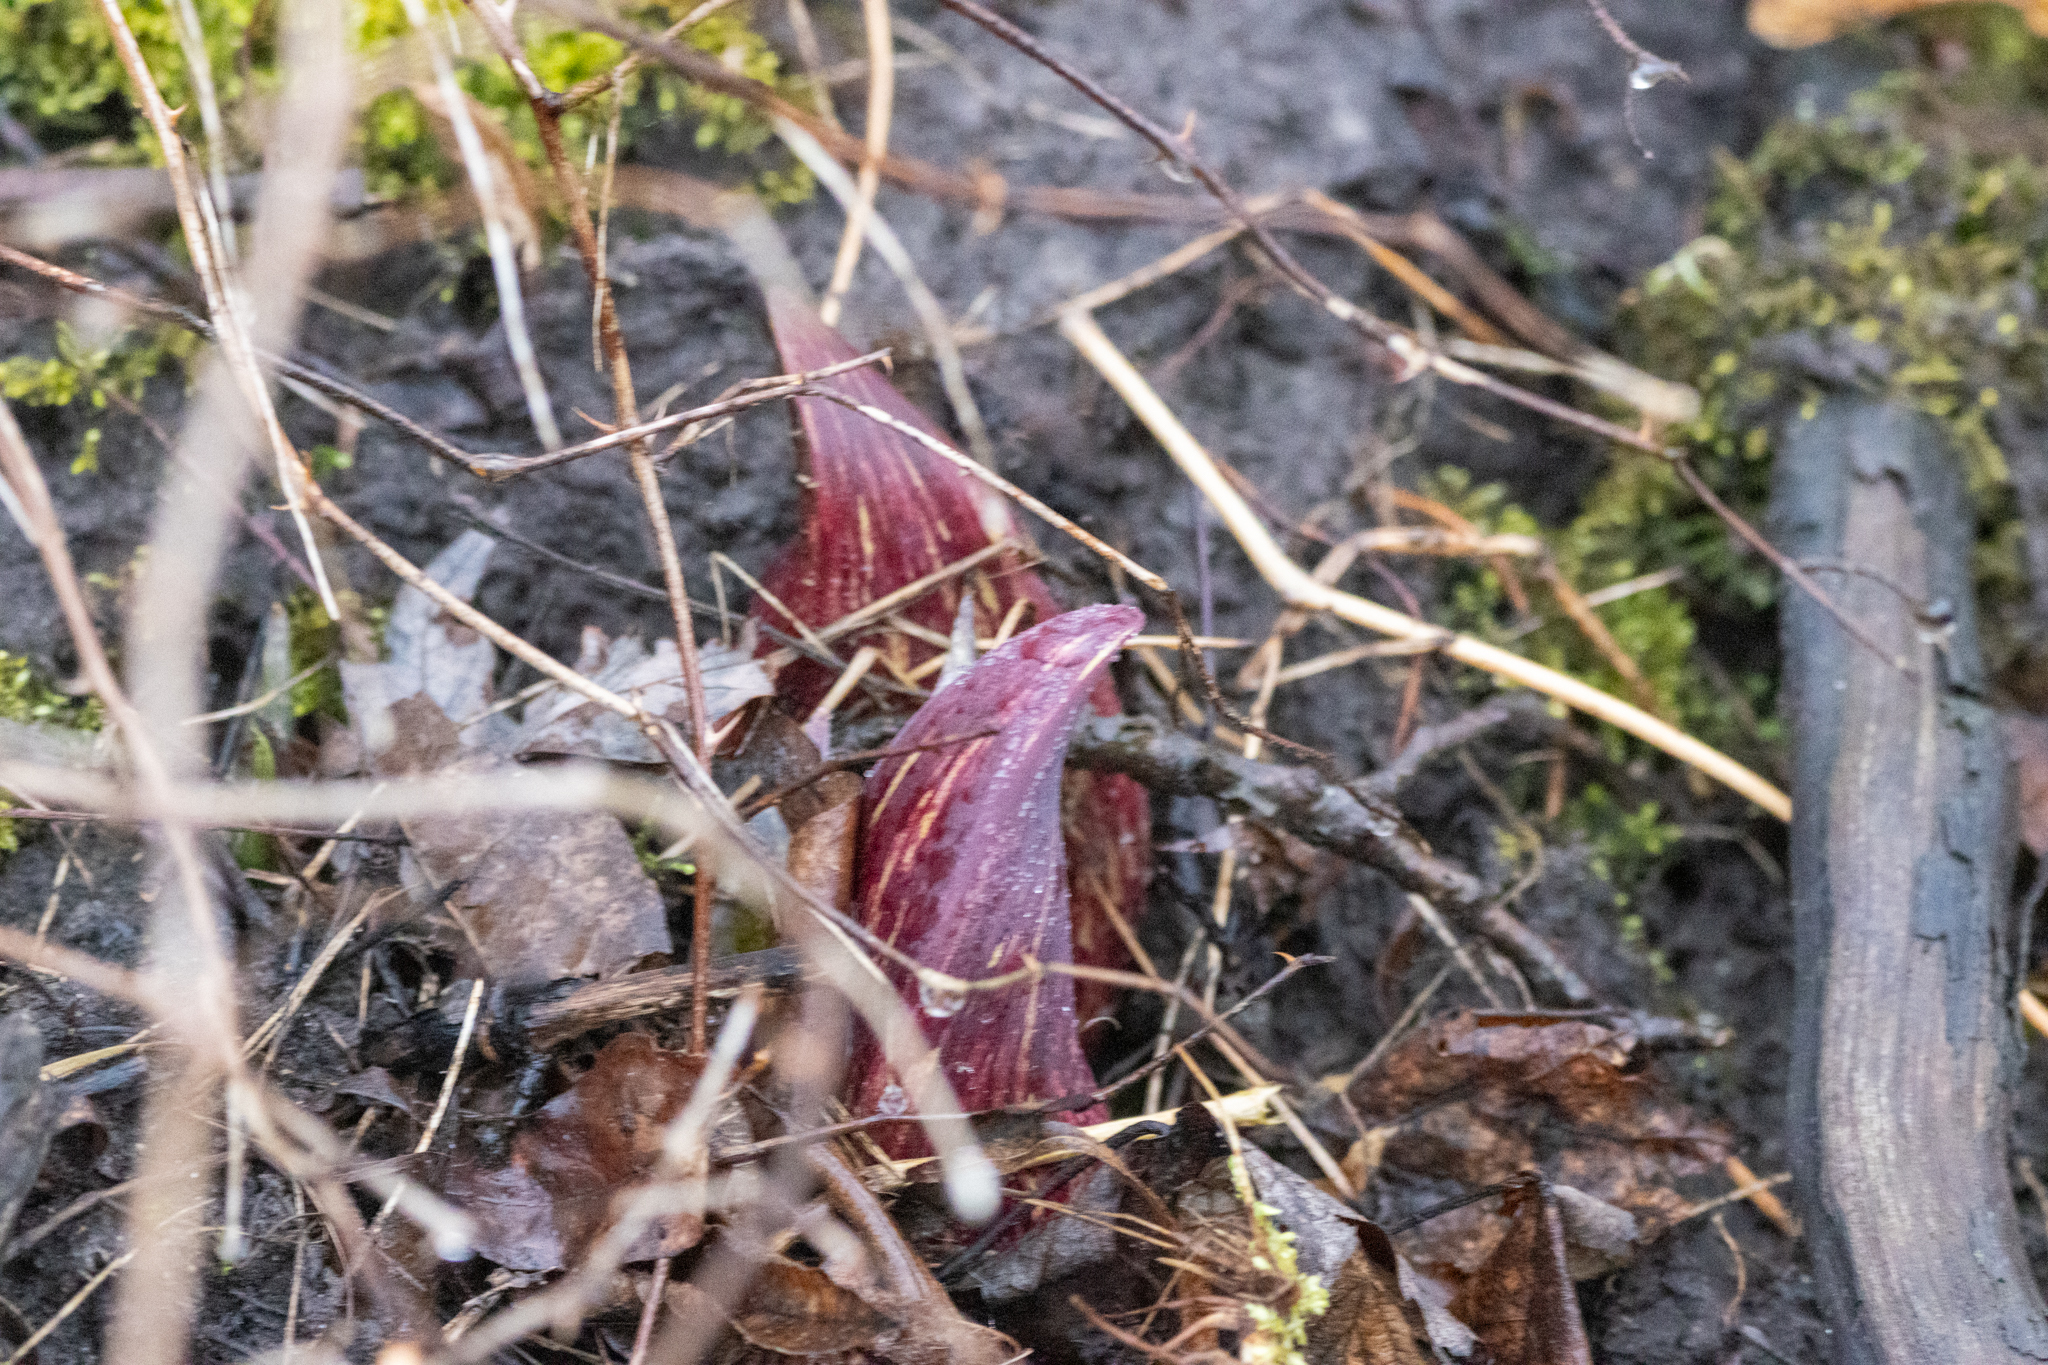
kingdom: Plantae
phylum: Tracheophyta
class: Liliopsida
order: Alismatales
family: Araceae
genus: Symplocarpus
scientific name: Symplocarpus foetidus
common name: Eastern skunk cabbage
